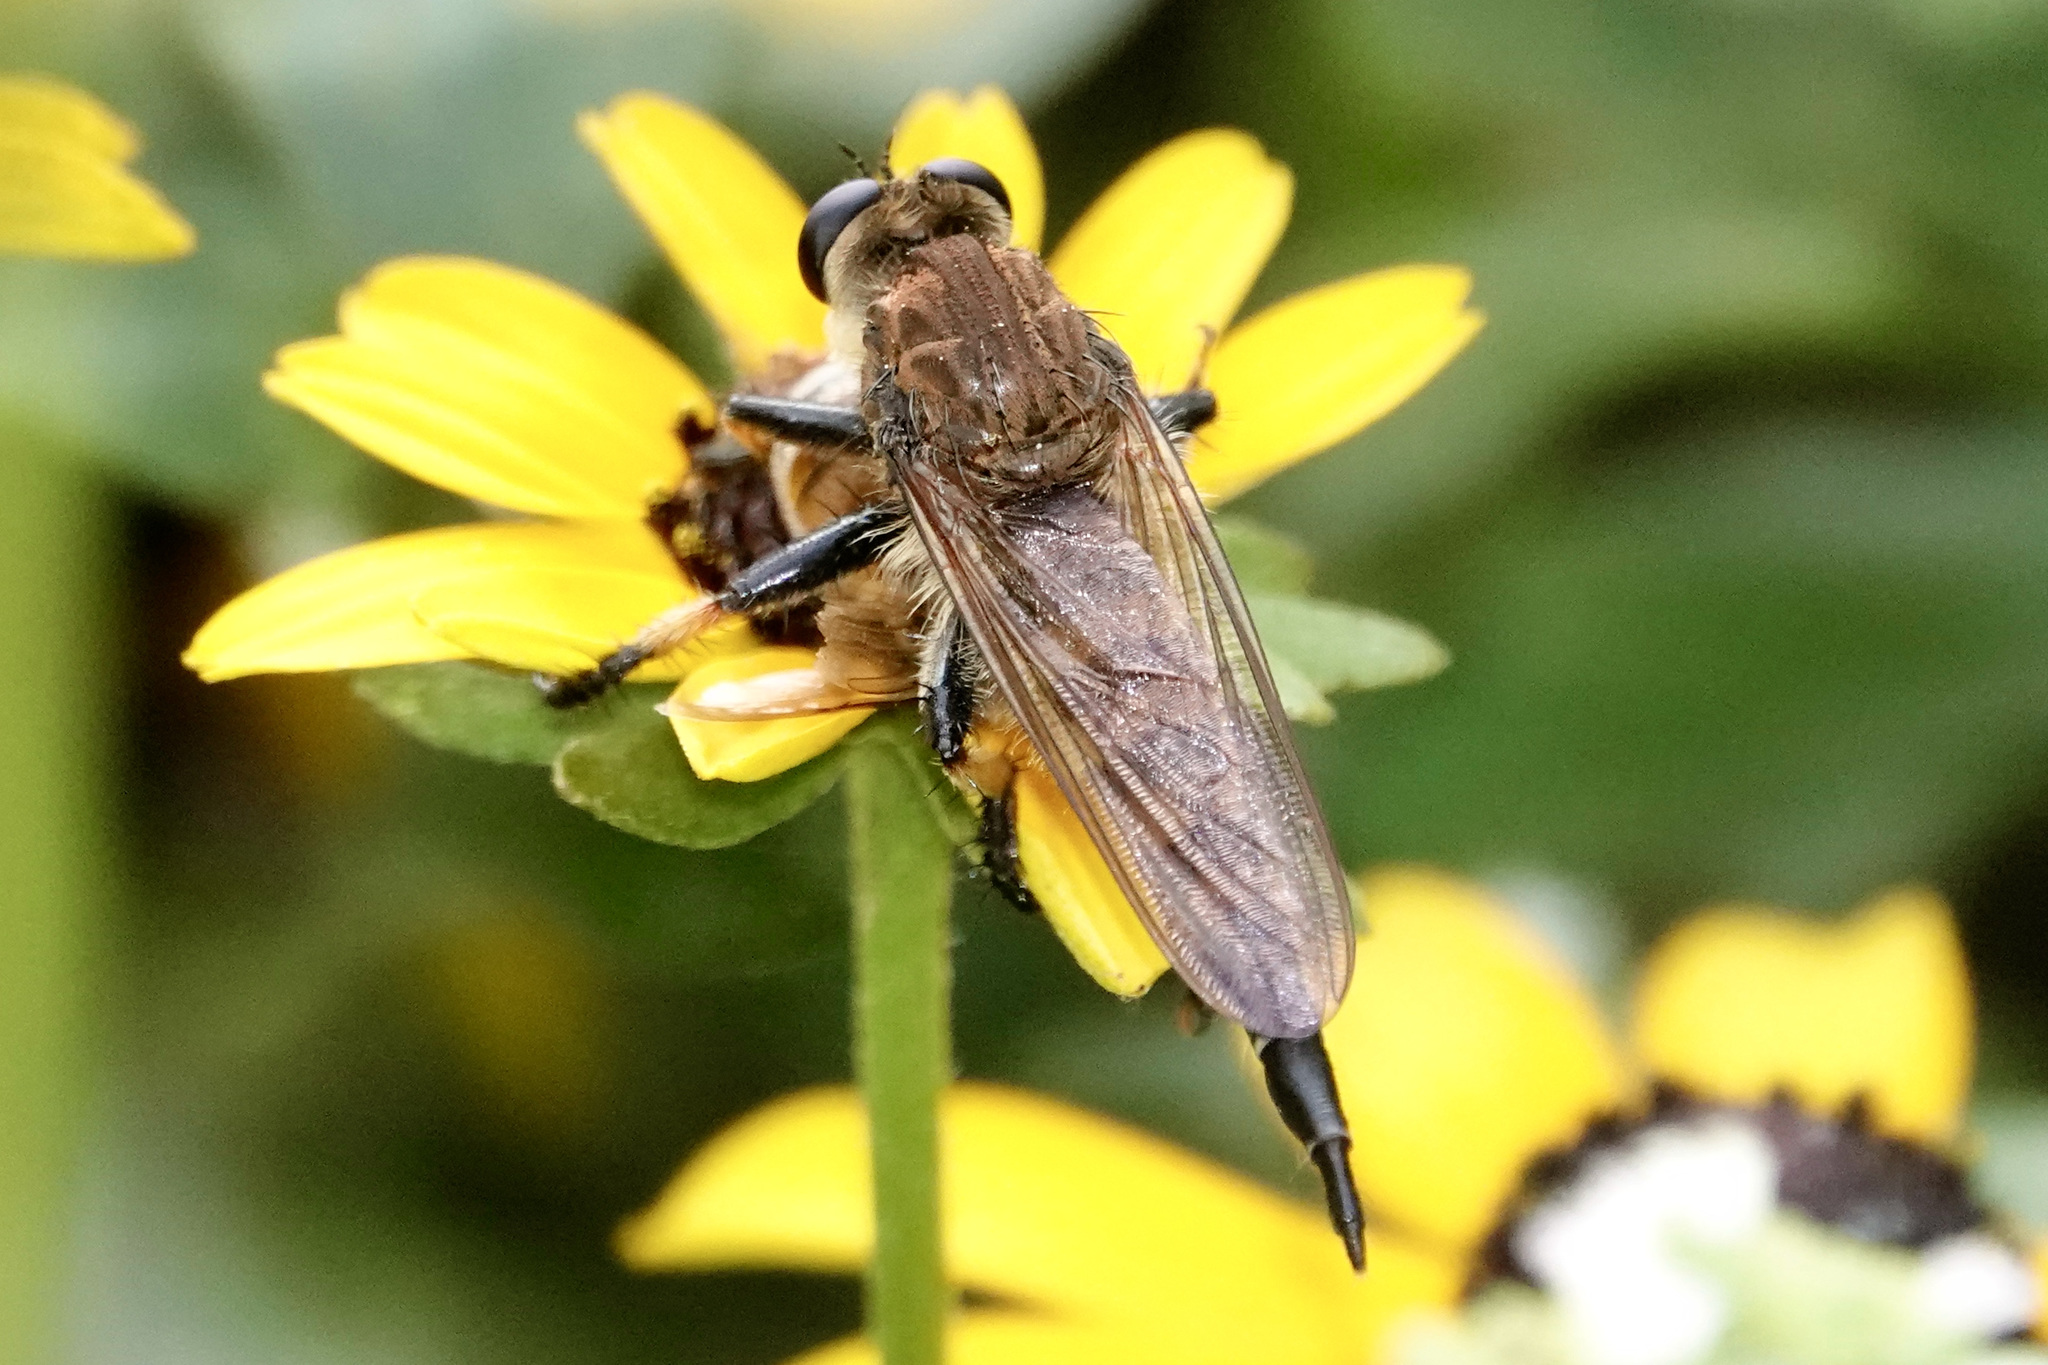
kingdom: Animalia
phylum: Arthropoda
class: Insecta
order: Diptera
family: Asilidae
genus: Promachus
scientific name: Promachus rufipes
